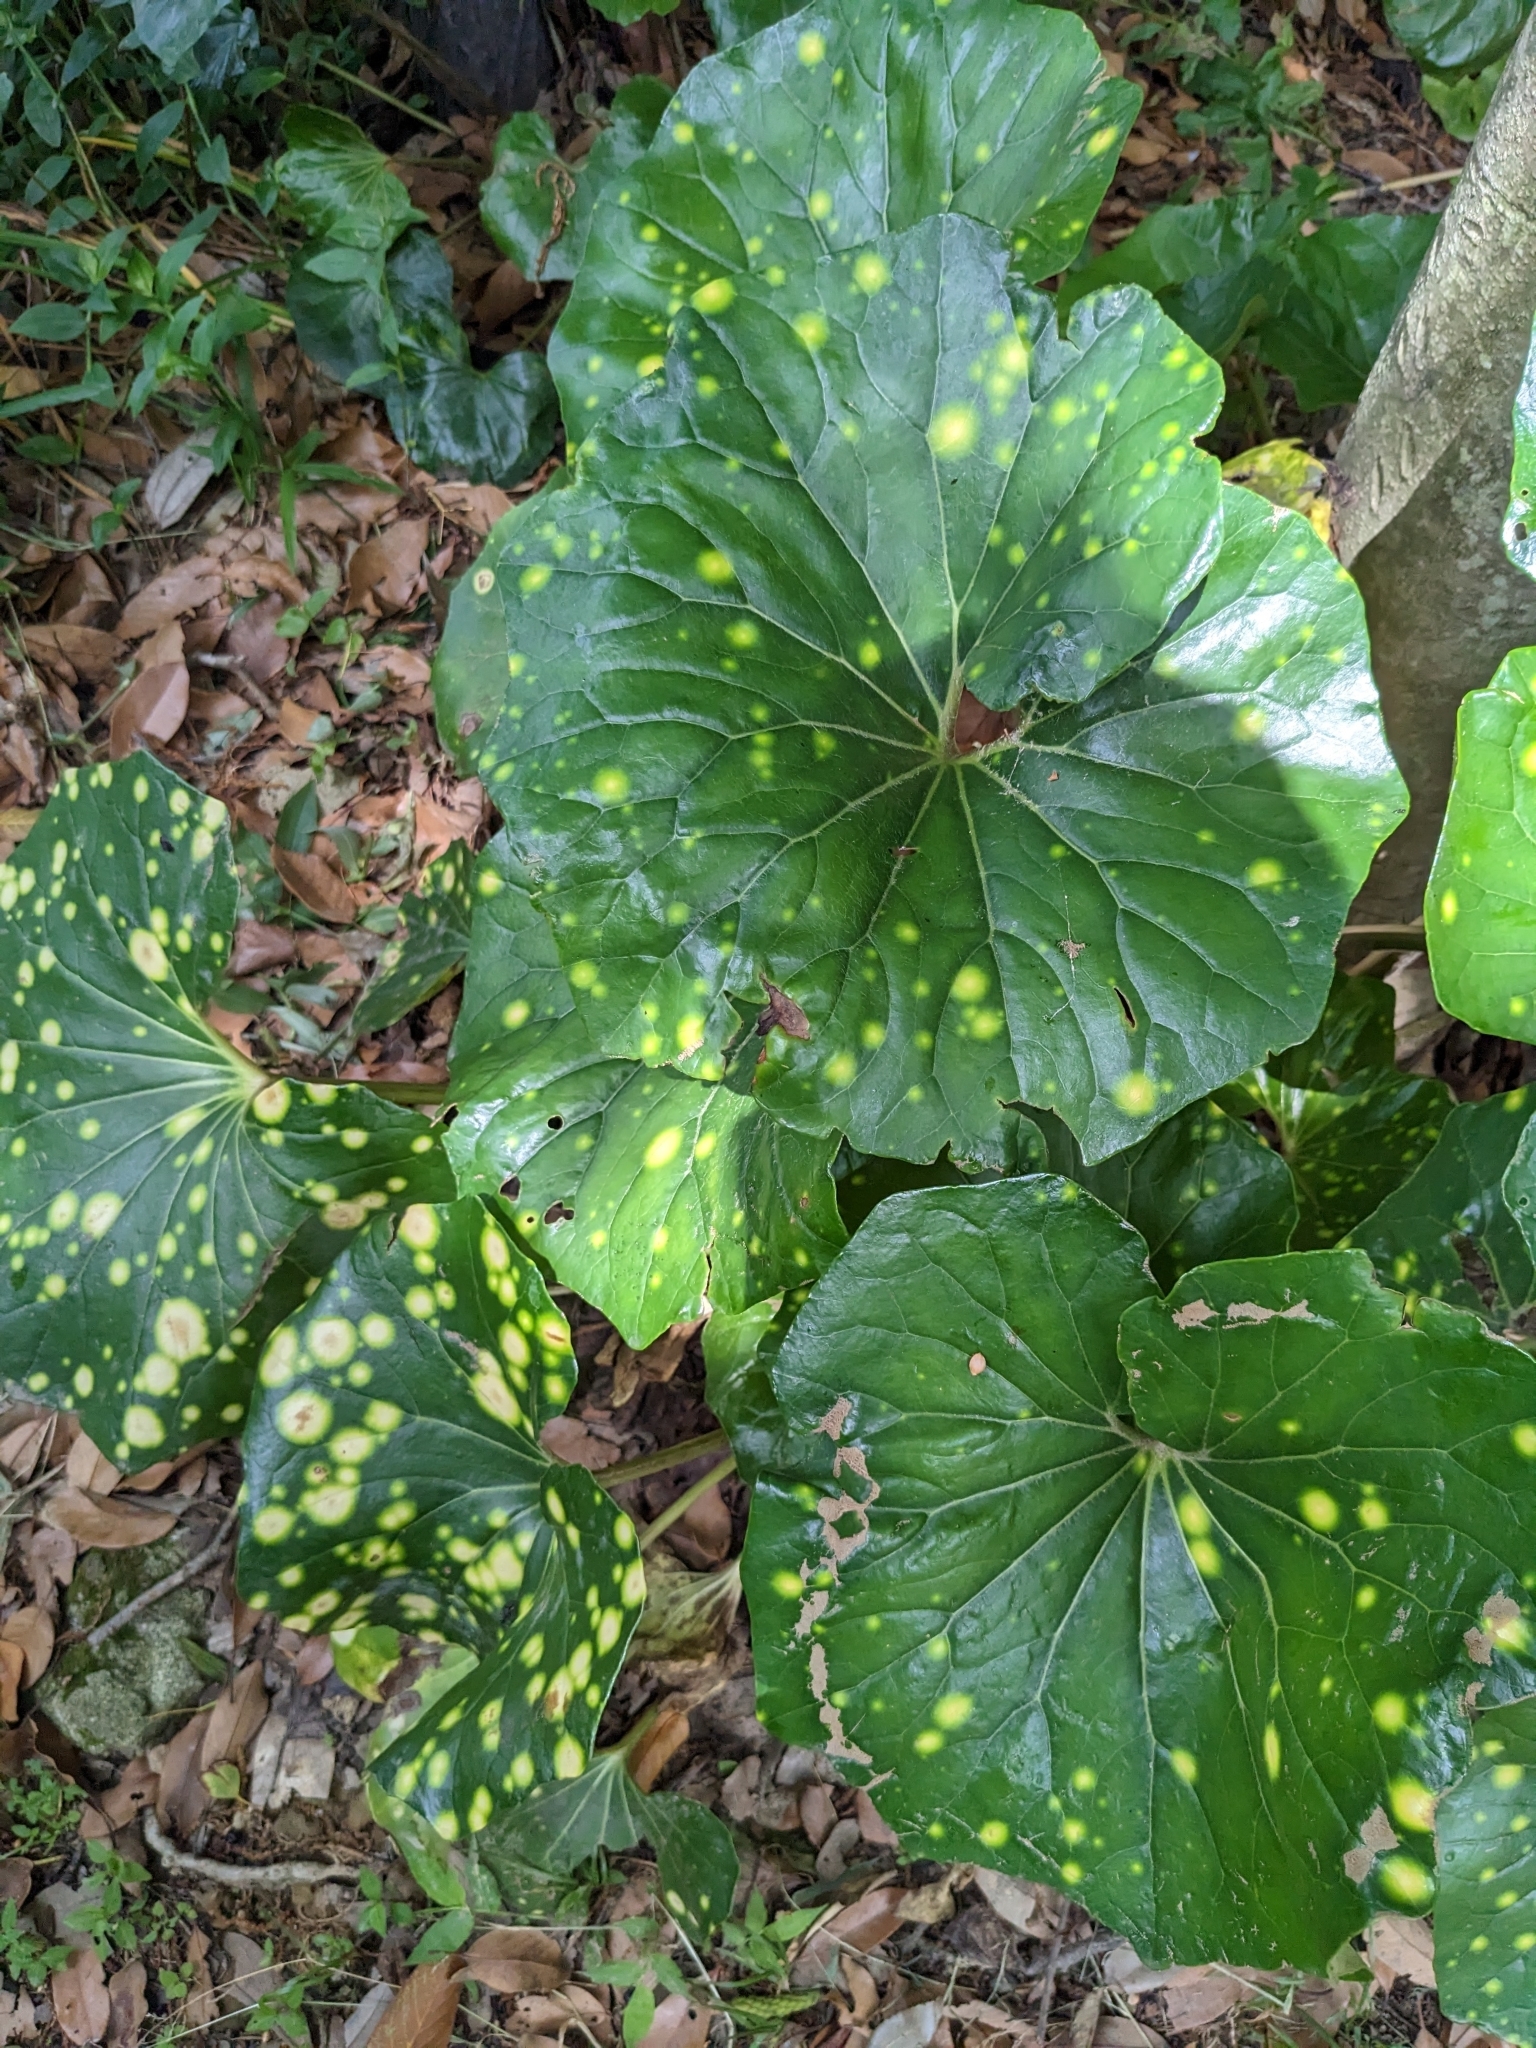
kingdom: Plantae
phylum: Tracheophyta
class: Magnoliopsida
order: Asterales
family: Asteraceae
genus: Farfugium
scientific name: Farfugium japonicum
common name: Leopardplant
